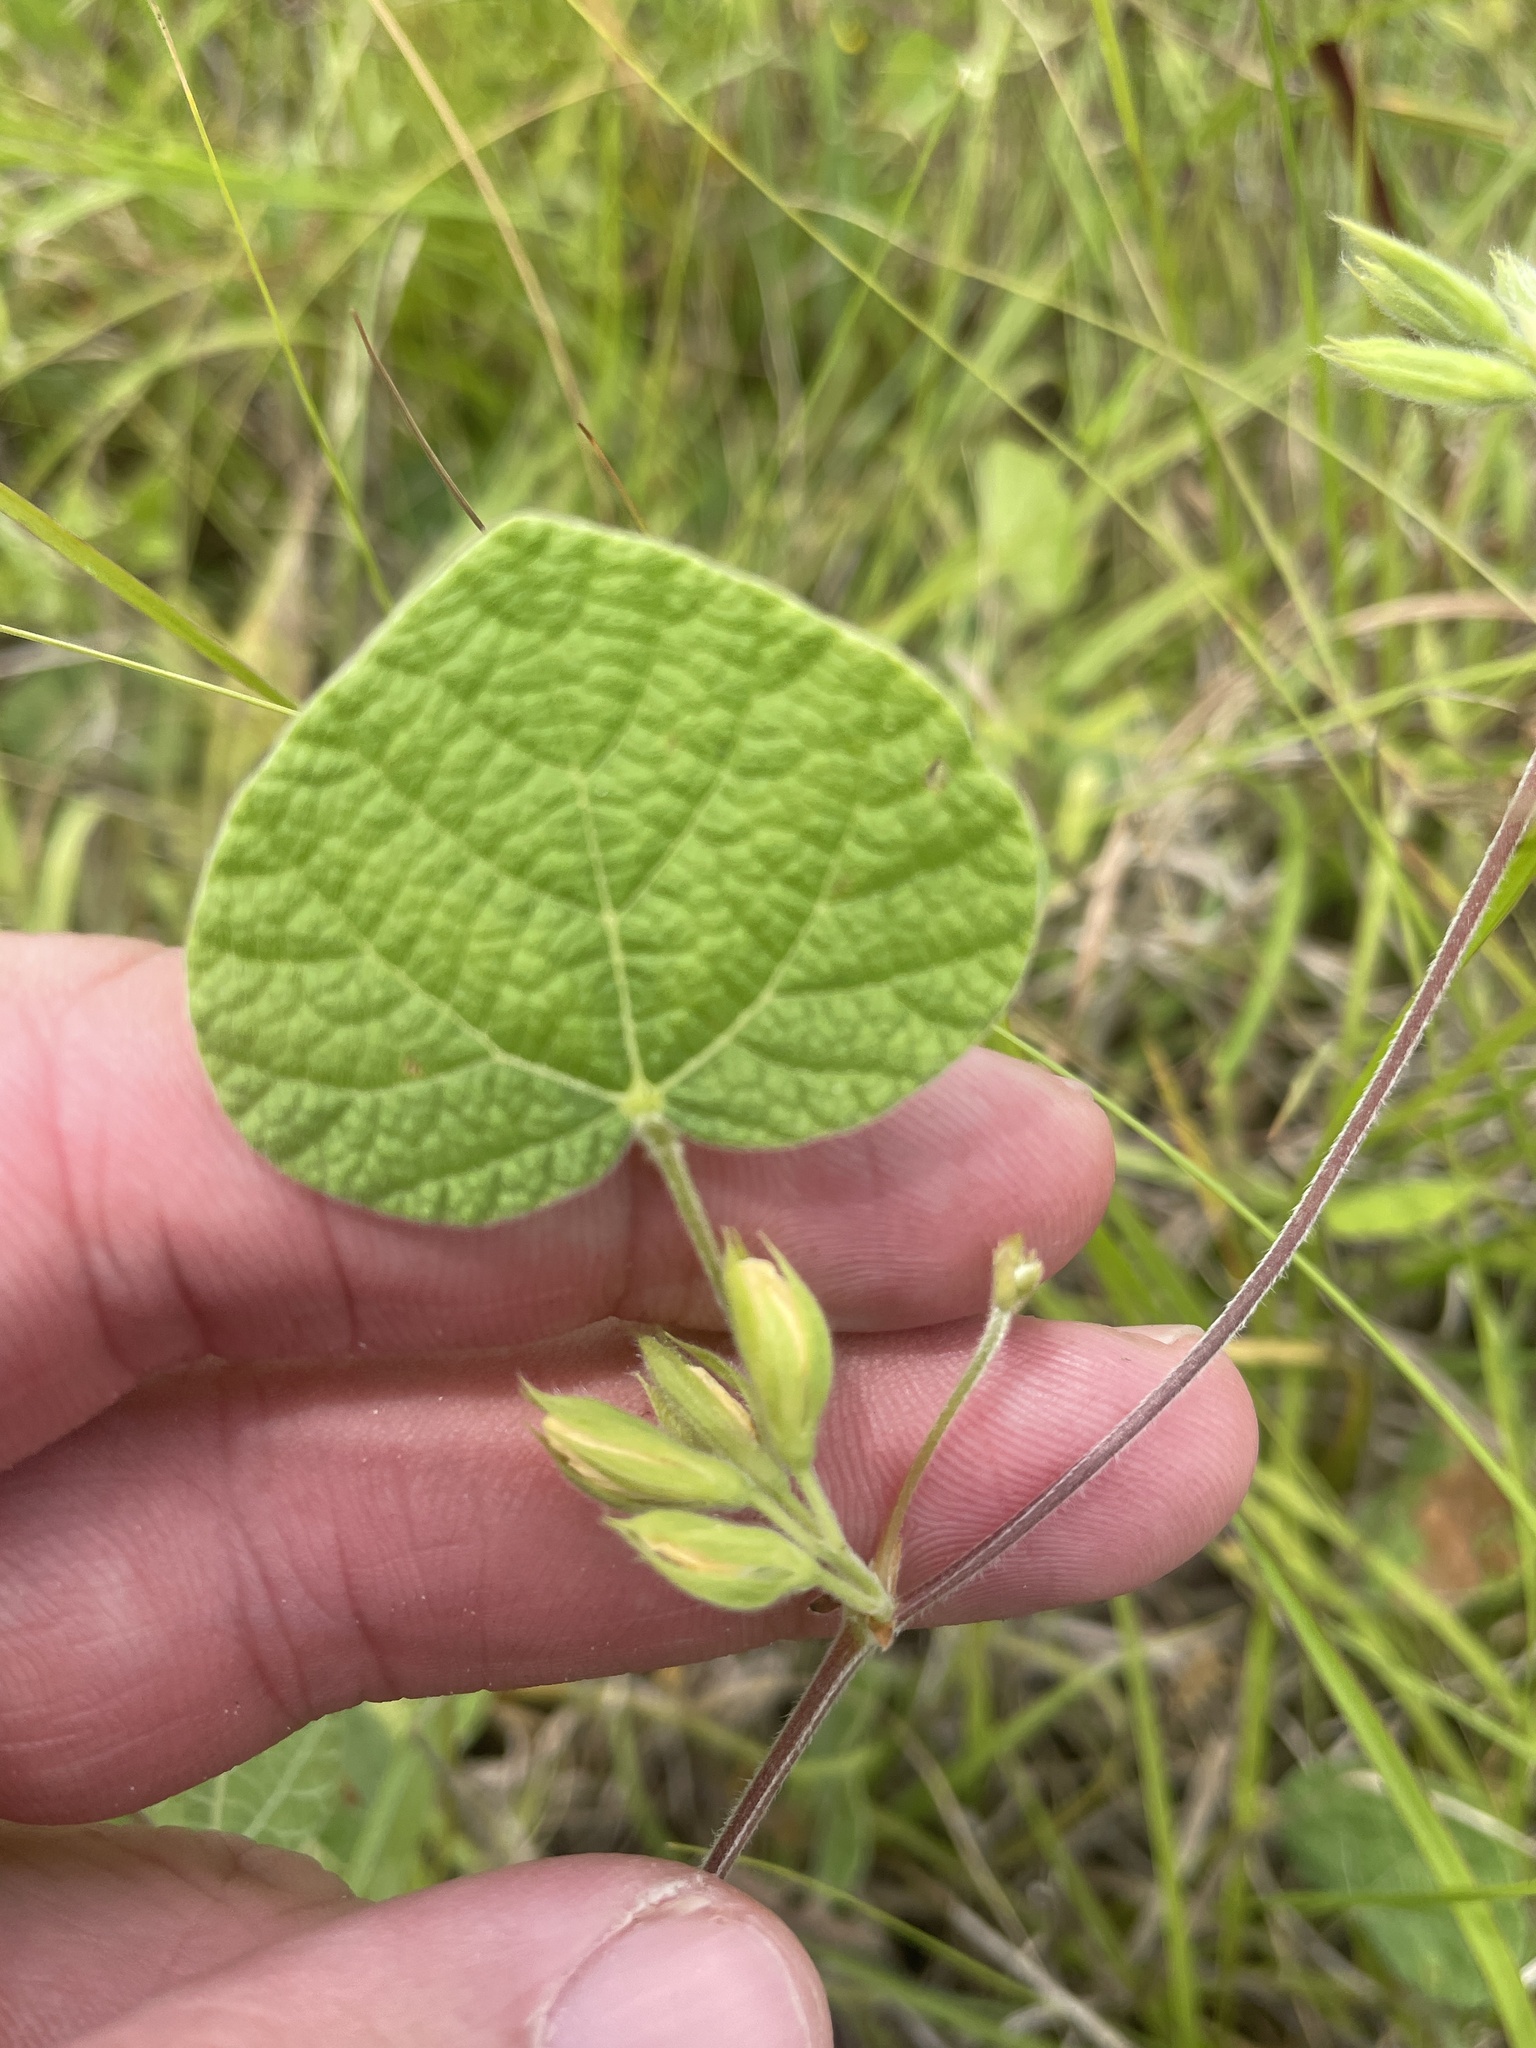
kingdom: Plantae
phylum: Tracheophyta
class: Magnoliopsida
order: Fabales
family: Fabaceae
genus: Rhynchosia
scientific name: Rhynchosia americana
